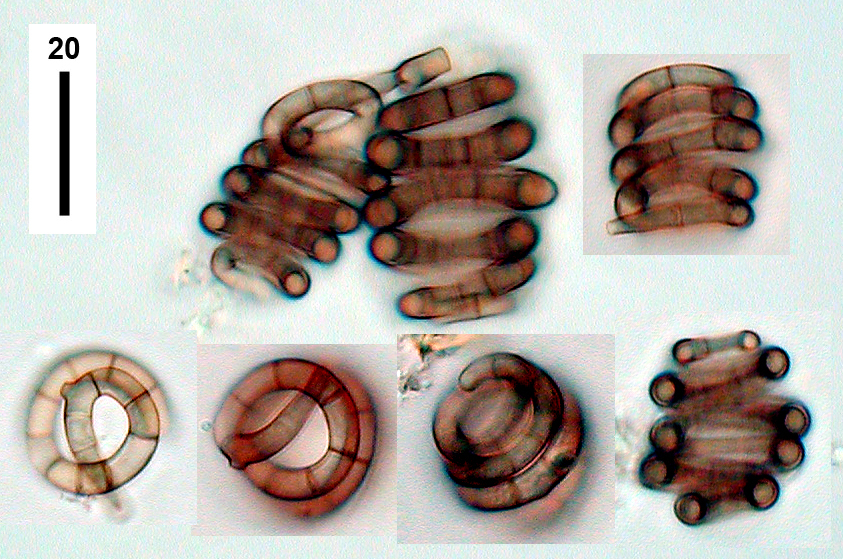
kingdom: Fungi
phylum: Ascomycota
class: Leotiomycetes
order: Helotiales
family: Helotiaceae
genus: Helicodendron
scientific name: Helicodendron multiseptatum
